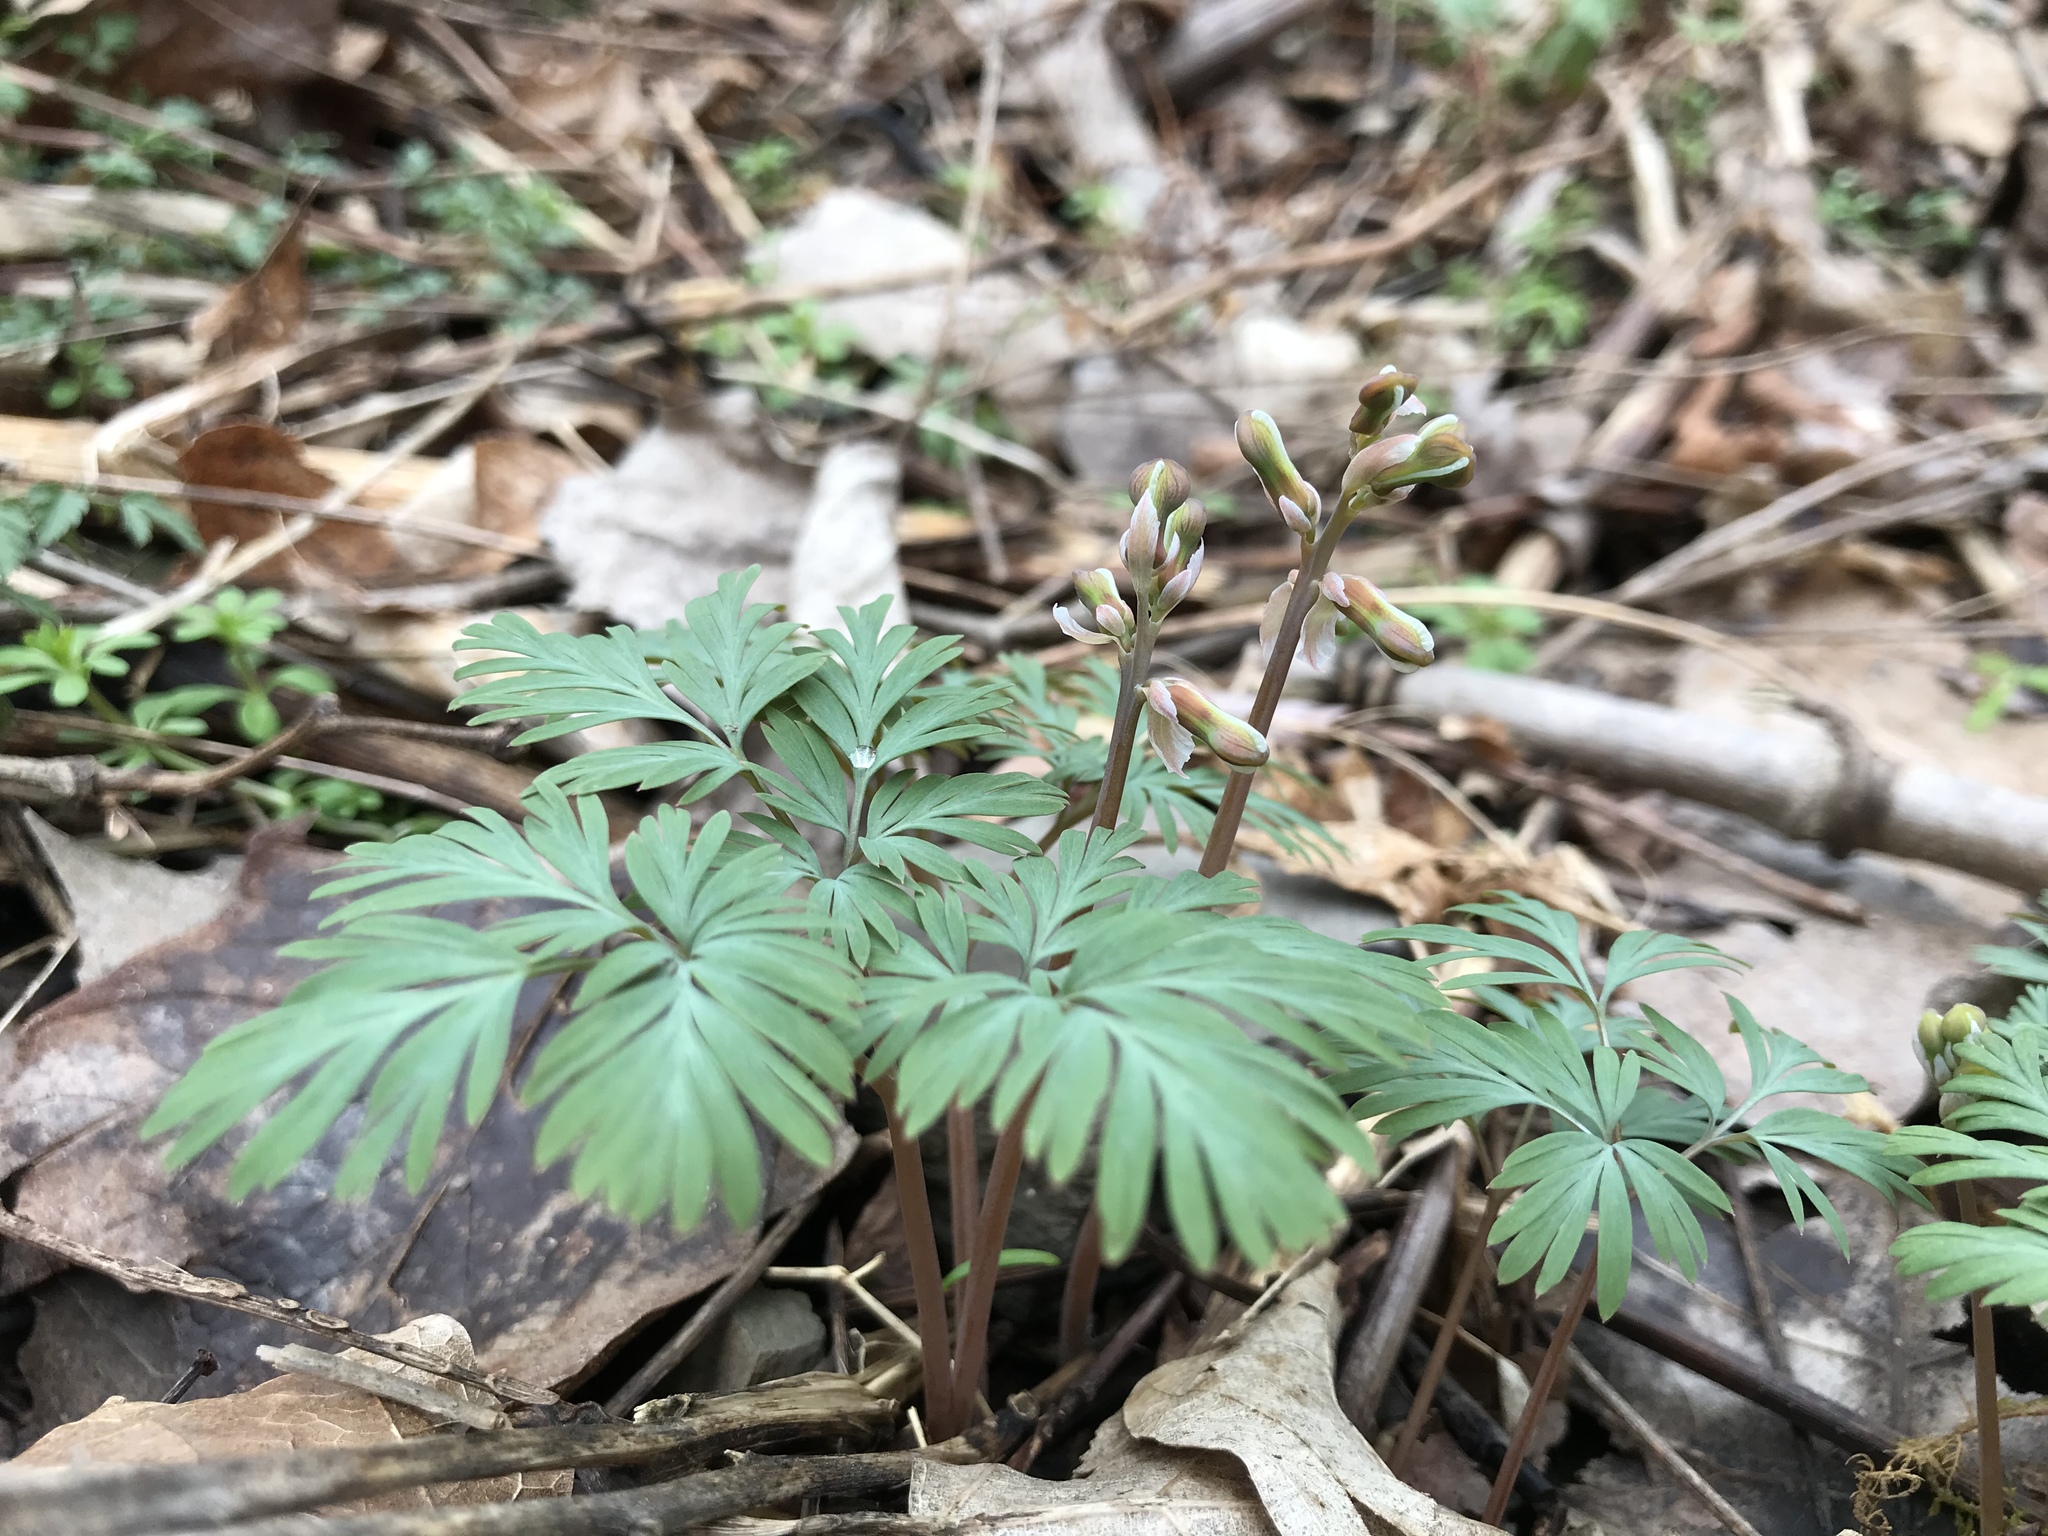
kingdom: Plantae
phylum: Tracheophyta
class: Magnoliopsida
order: Ranunculales
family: Papaveraceae
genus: Dicentra
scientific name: Dicentra canadensis
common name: Squirrel-corn
